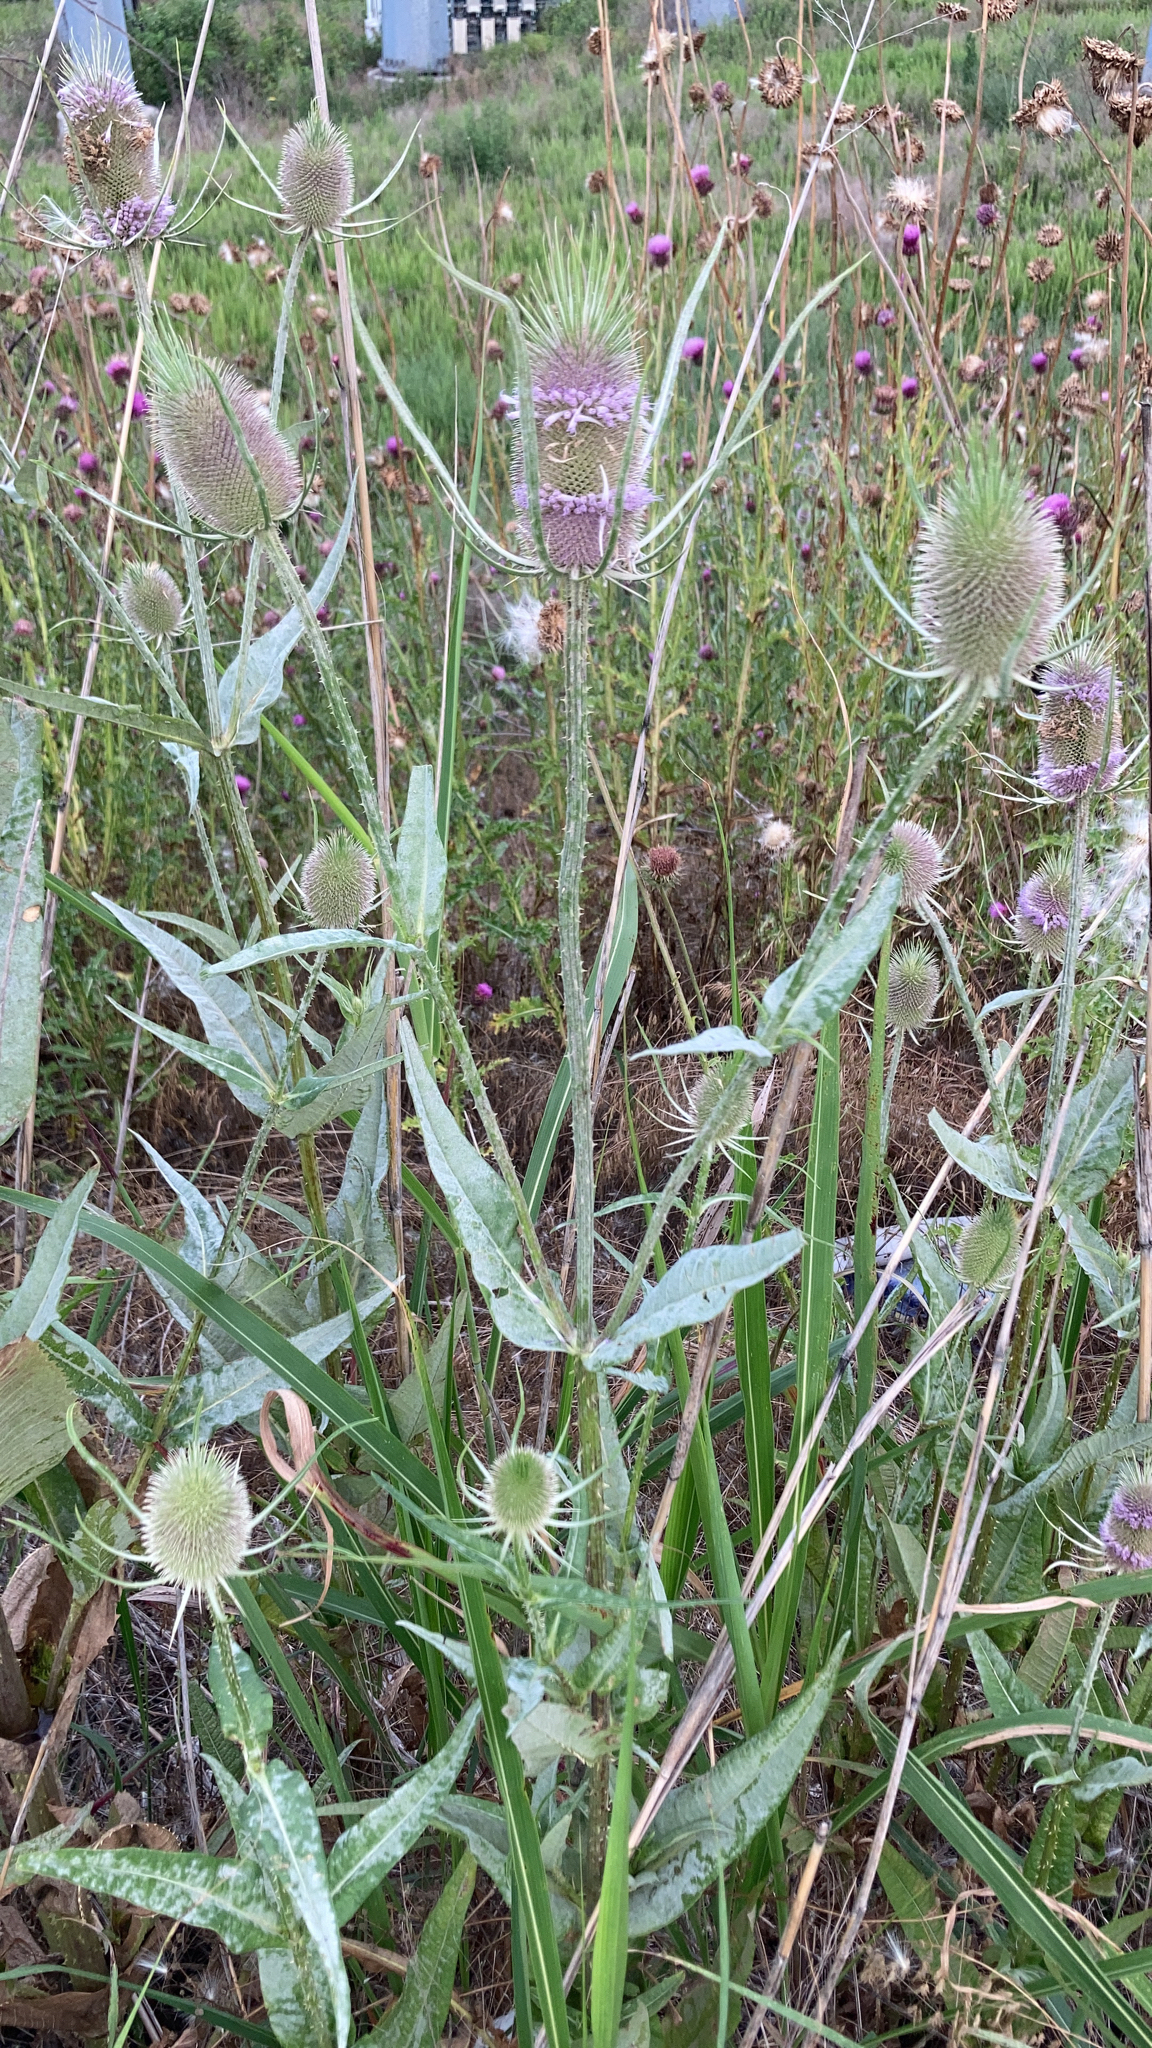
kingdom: Plantae
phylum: Tracheophyta
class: Magnoliopsida
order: Dipsacales
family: Caprifoliaceae
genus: Dipsacus
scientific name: Dipsacus fullonum
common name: Teasel
